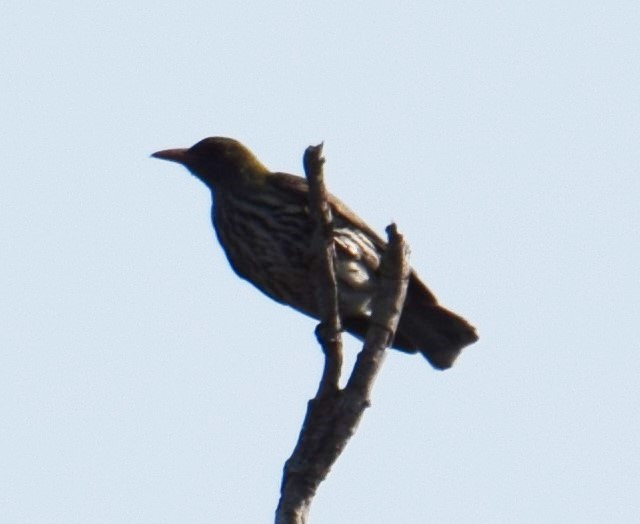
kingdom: Animalia
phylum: Chordata
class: Aves
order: Passeriformes
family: Oriolidae
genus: Oriolus
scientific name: Oriolus sagittatus
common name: Olive-backed oriole
